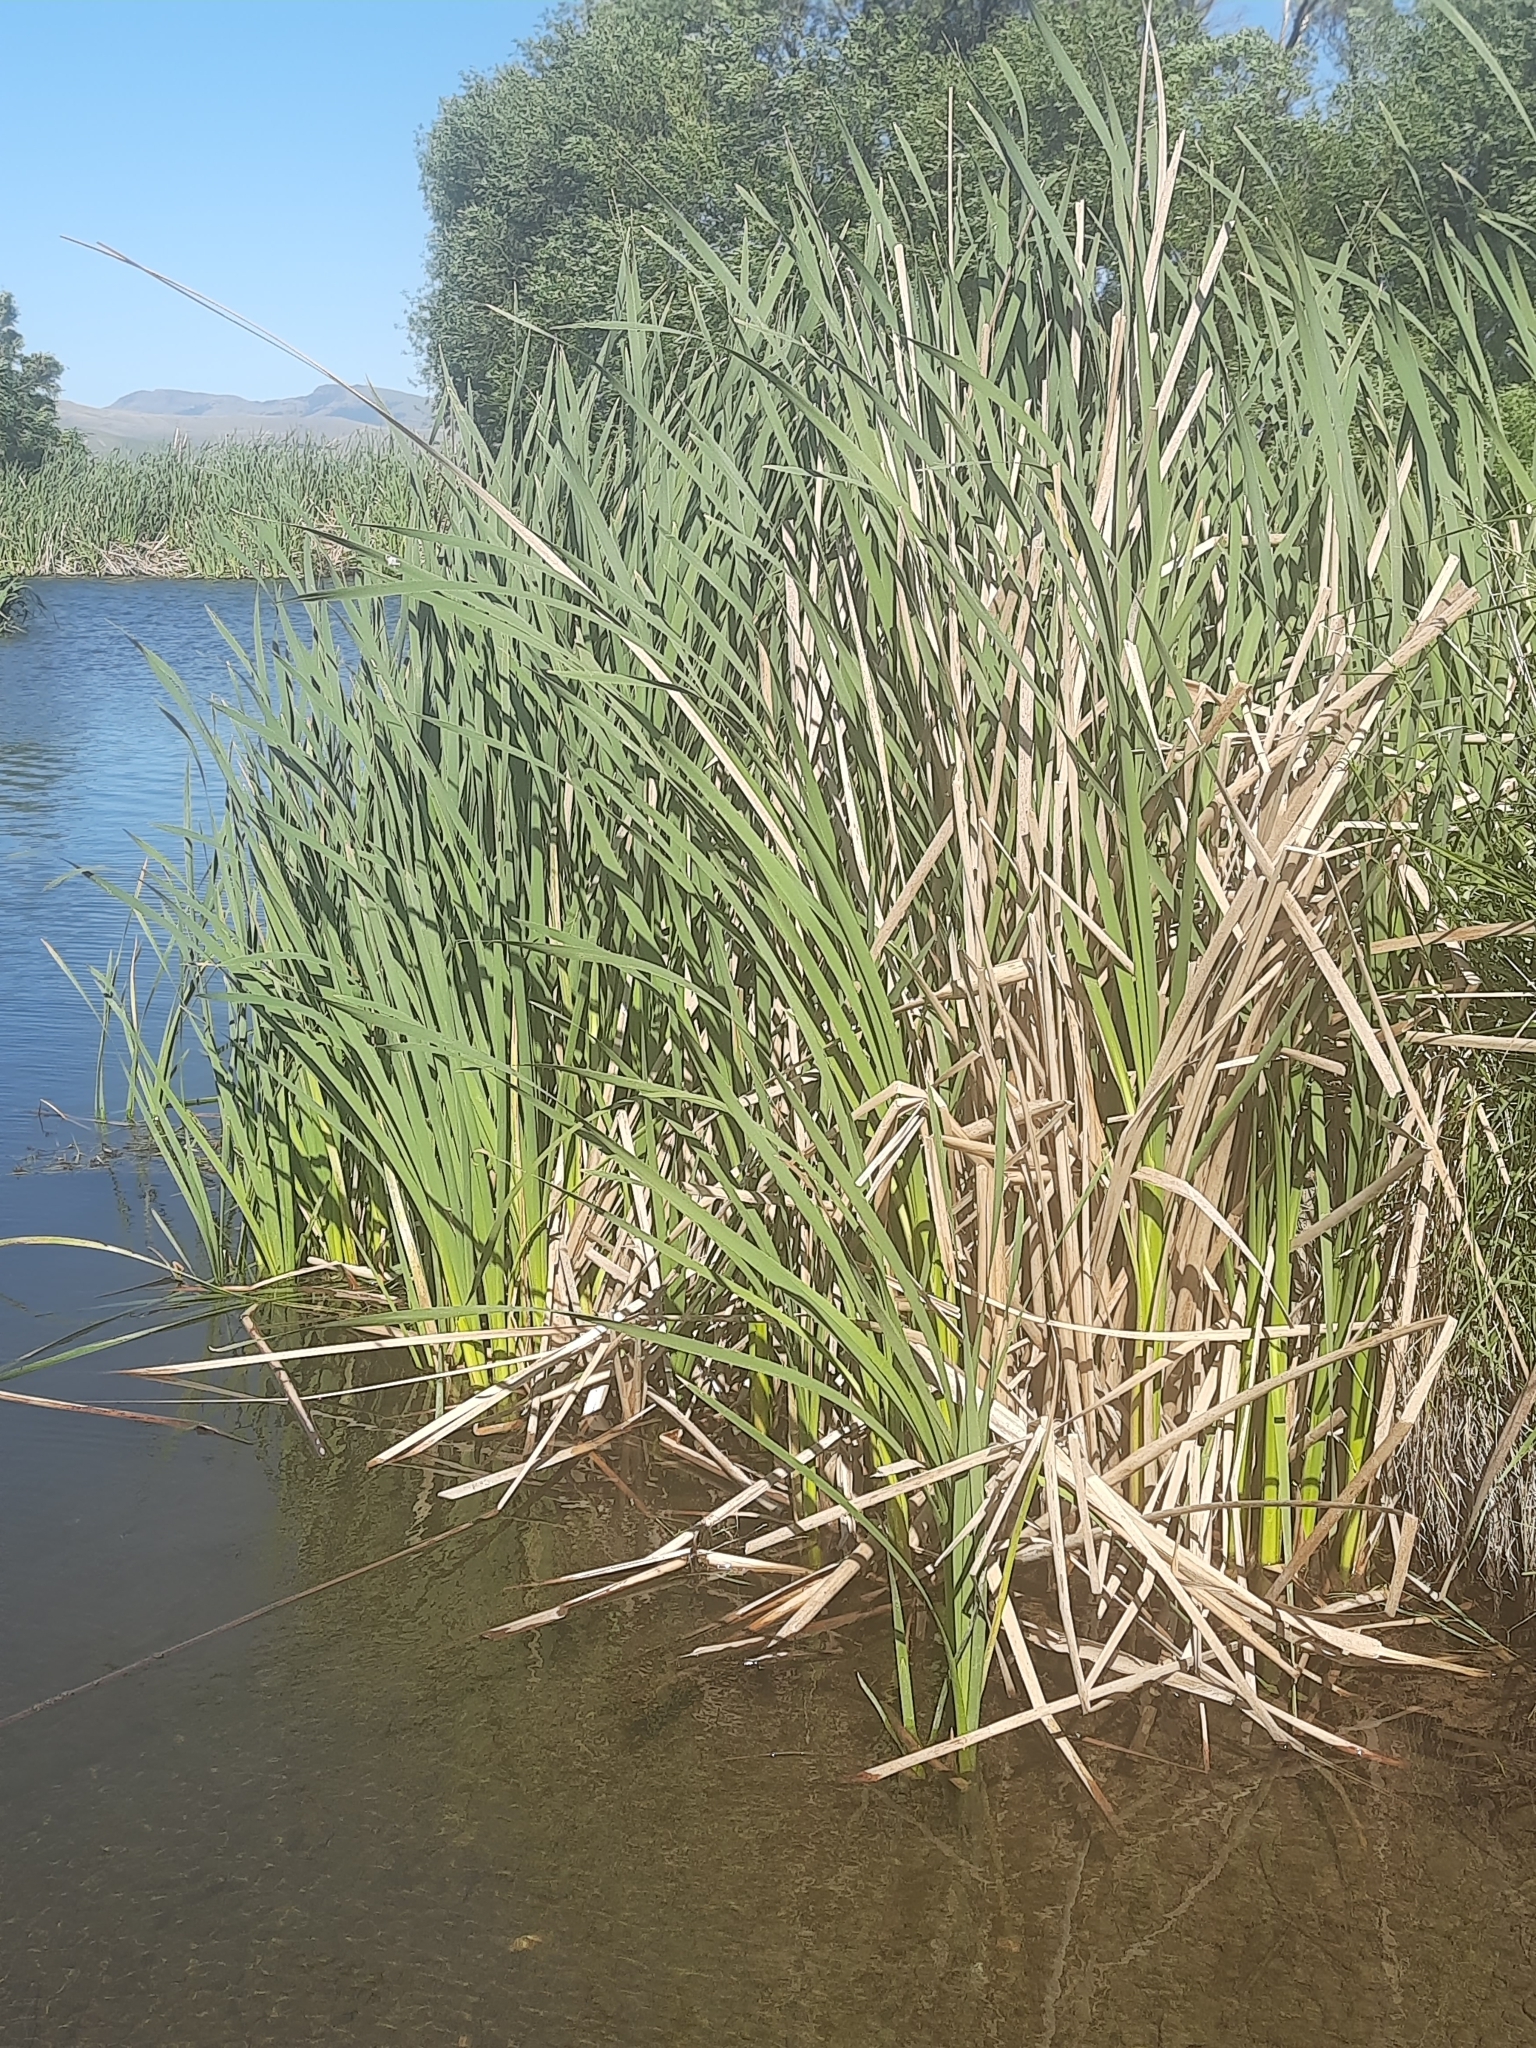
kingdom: Plantae
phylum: Tracheophyta
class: Liliopsida
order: Poales
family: Typhaceae
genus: Typha
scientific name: Typha orientalis
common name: Bullrush
